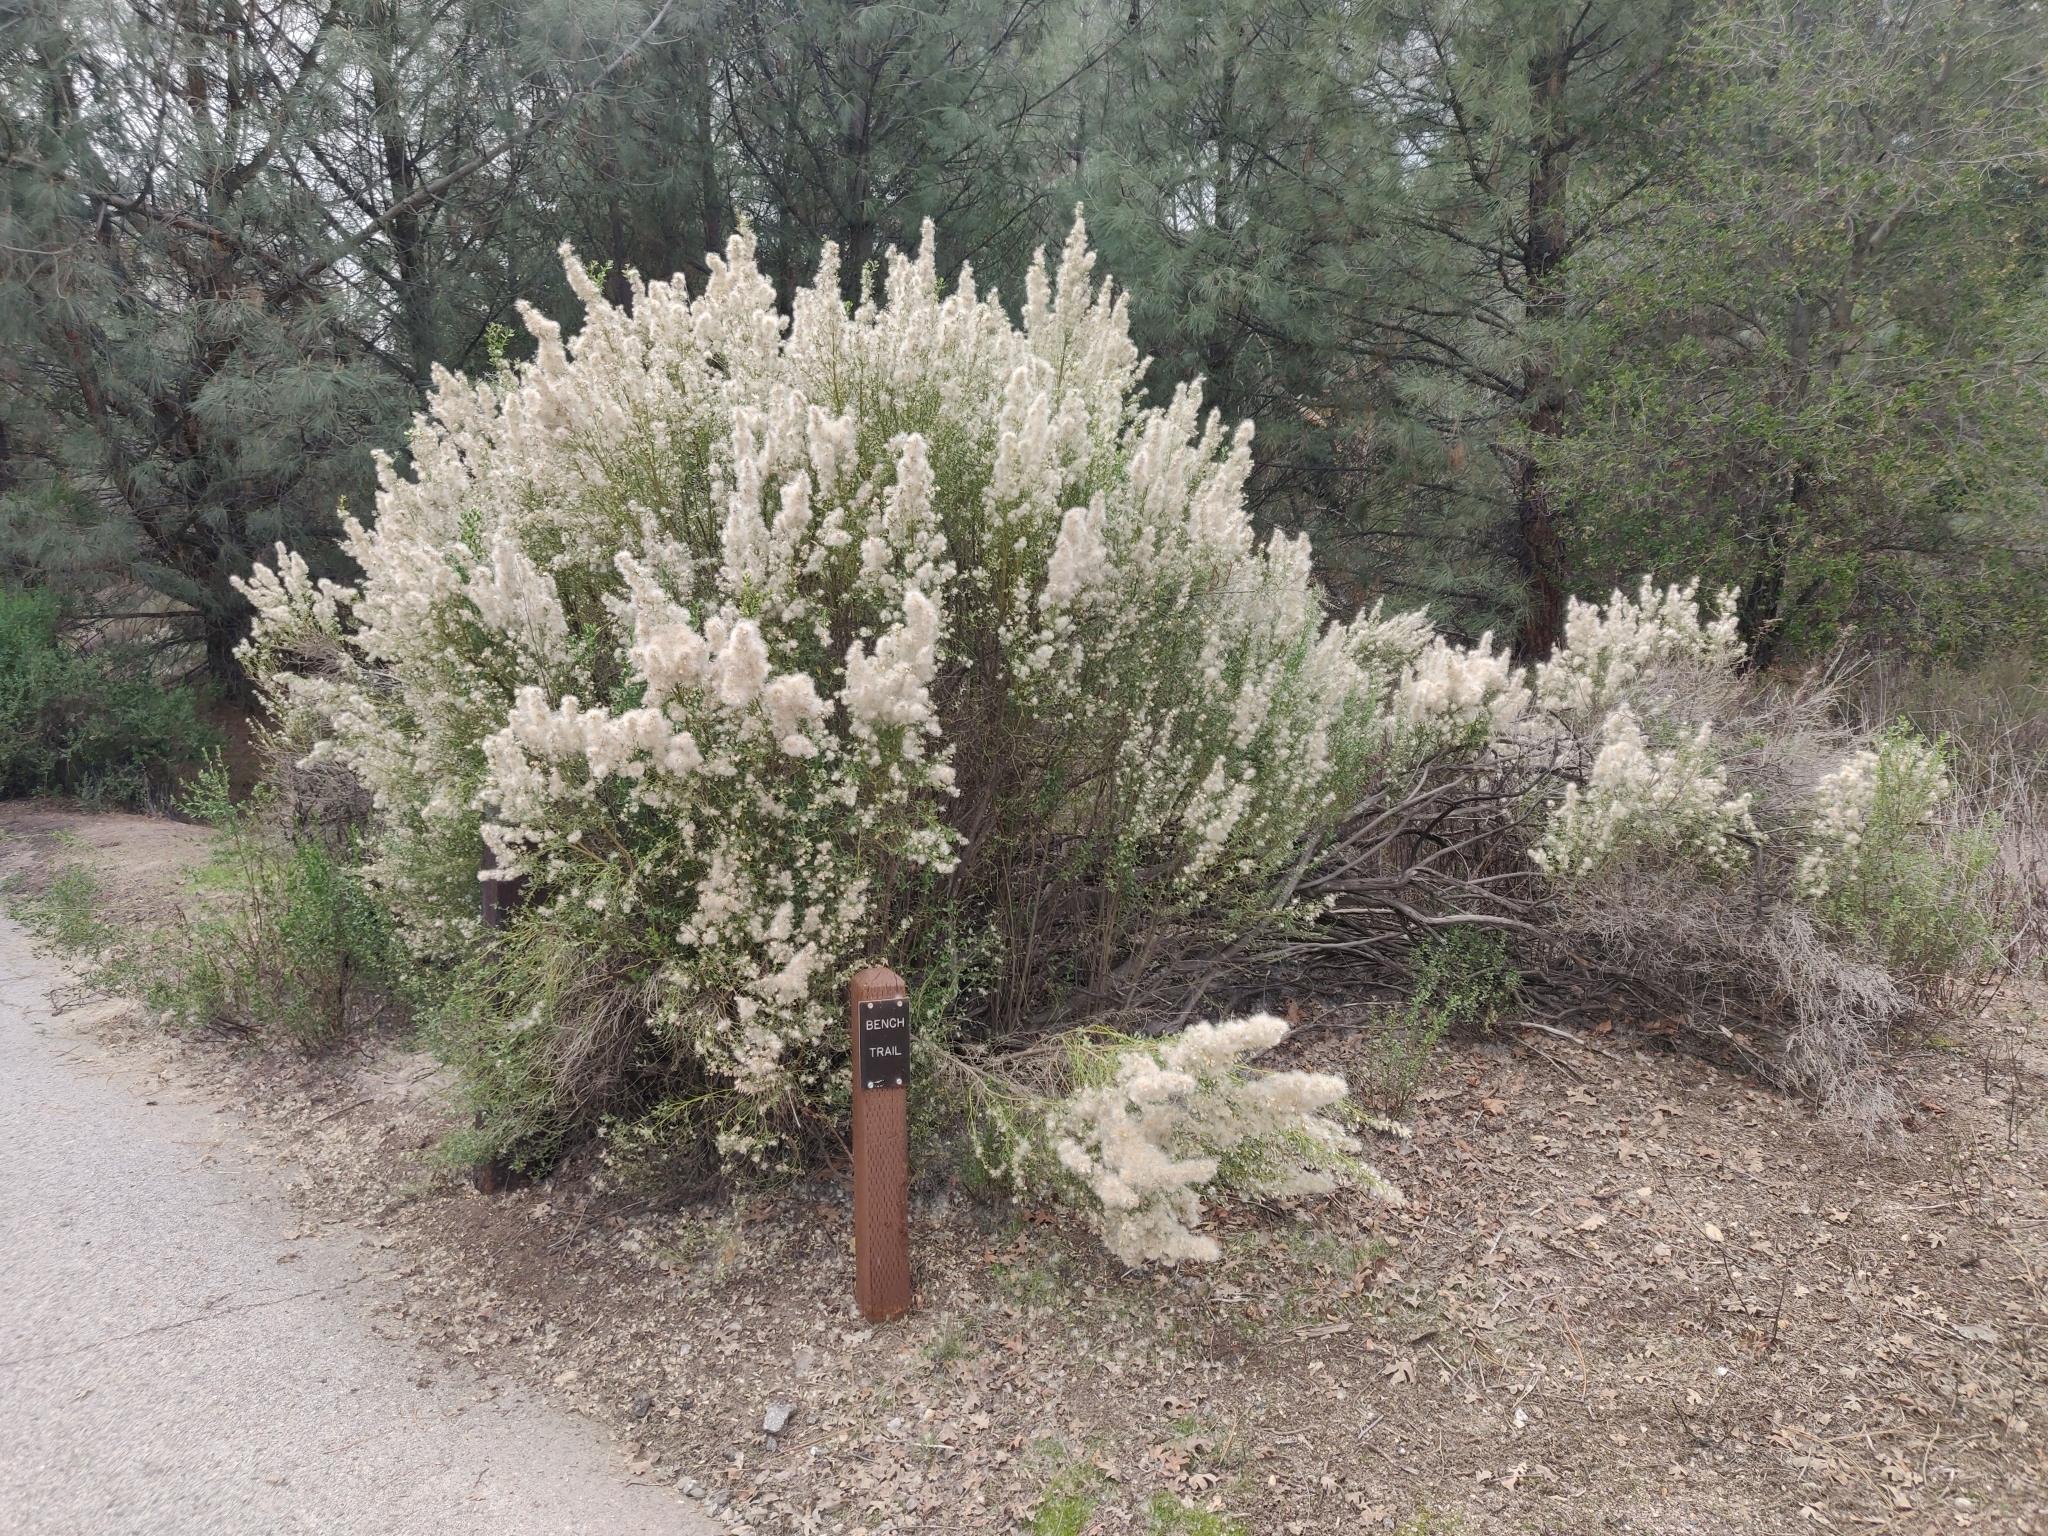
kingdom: Plantae
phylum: Tracheophyta
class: Magnoliopsida
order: Asterales
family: Asteraceae
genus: Baccharis
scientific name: Baccharis pilularis
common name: Coyotebrush
